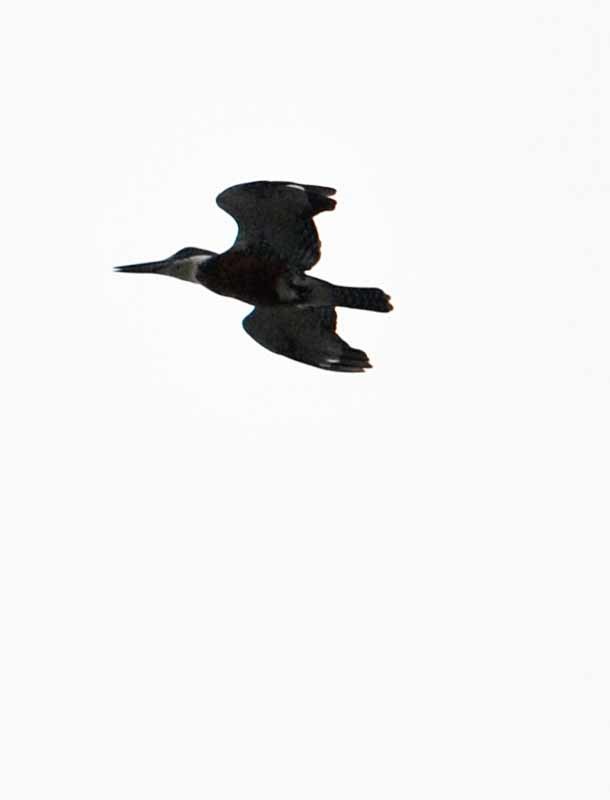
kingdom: Animalia
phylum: Chordata
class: Aves
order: Coraciiformes
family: Alcedinidae
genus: Megaceryle
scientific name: Megaceryle torquata
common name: Ringed kingfisher
